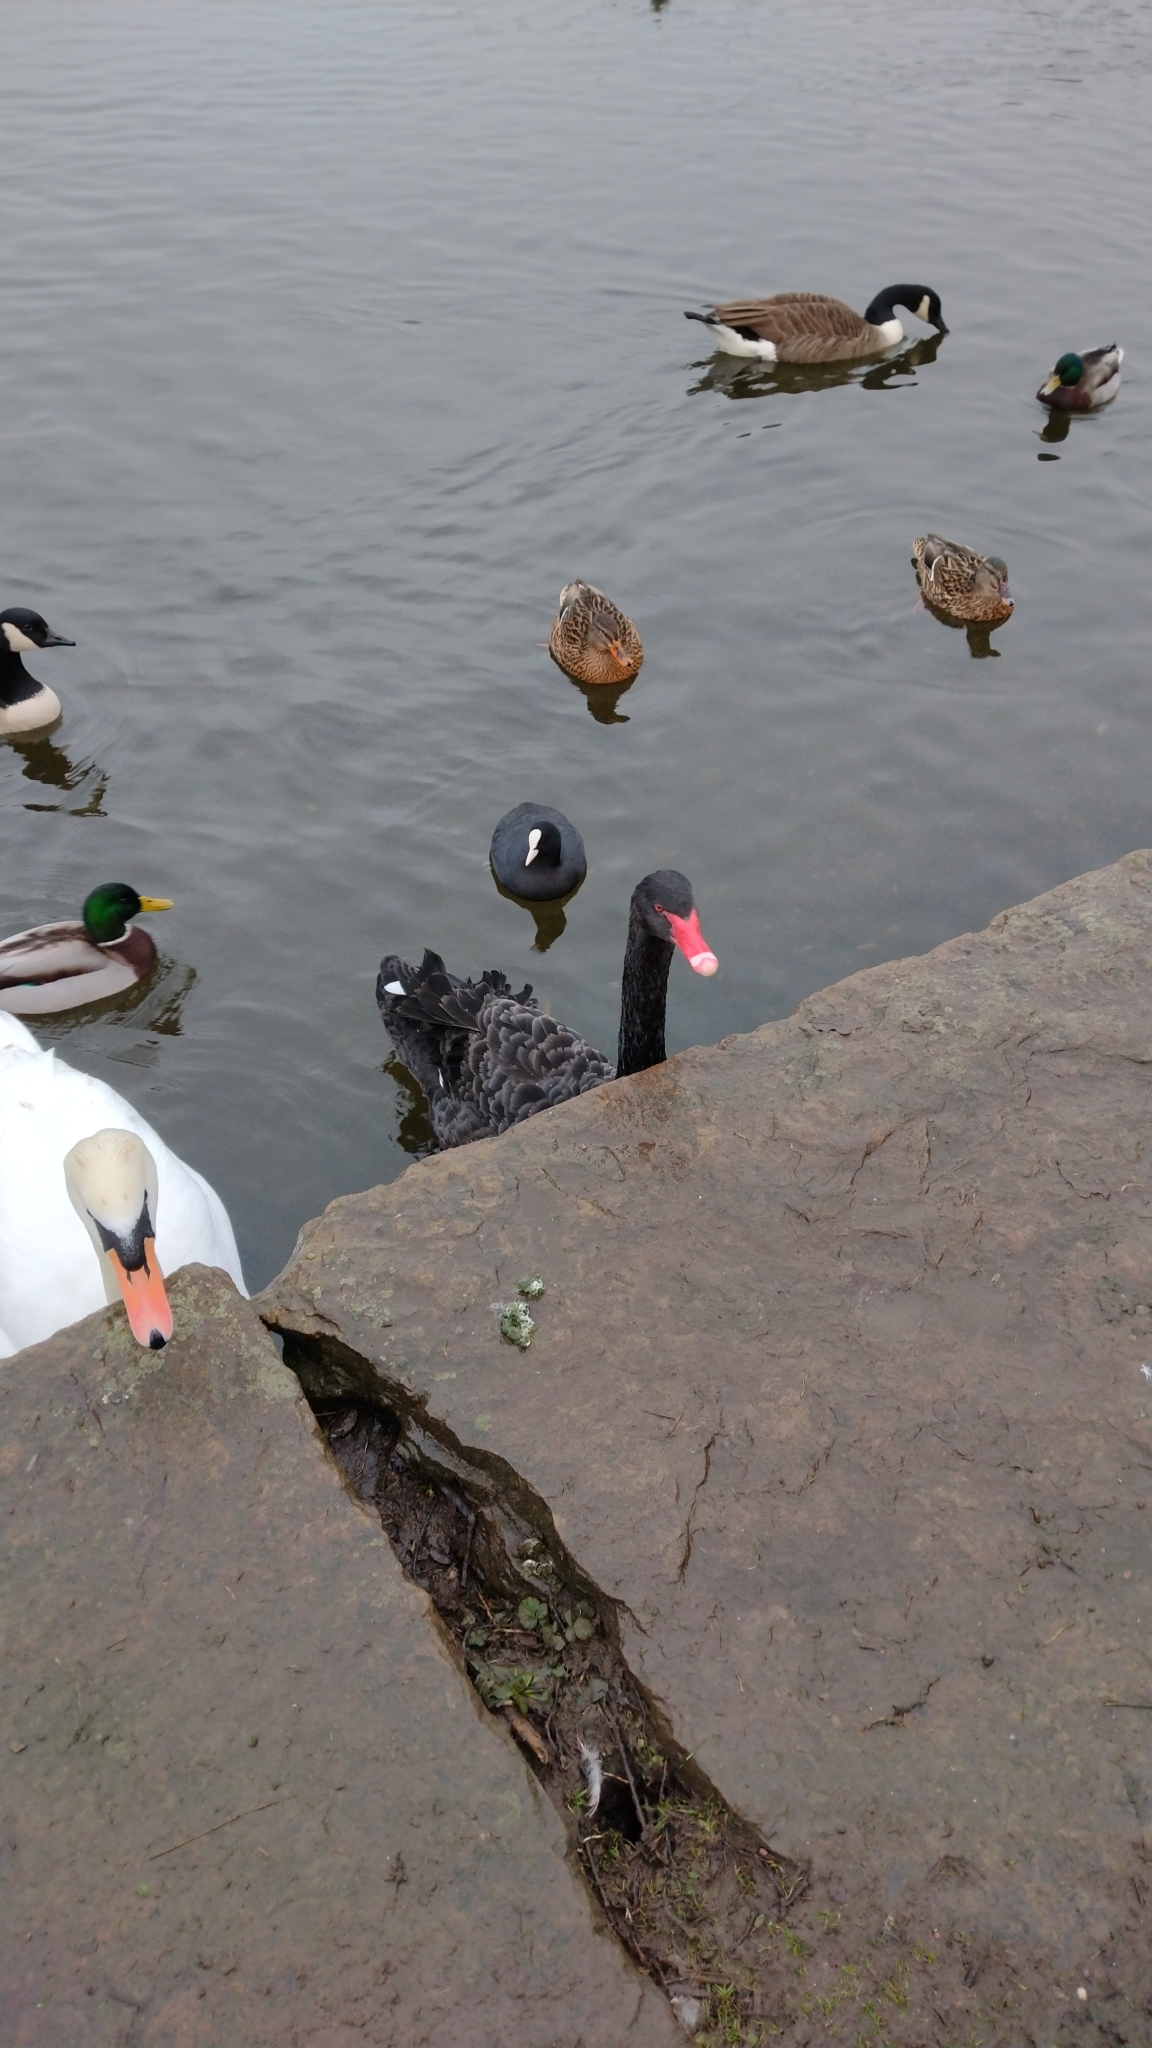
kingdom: Animalia
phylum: Chordata
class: Aves
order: Anseriformes
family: Anatidae
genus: Cygnus
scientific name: Cygnus atratus
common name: Black swan
